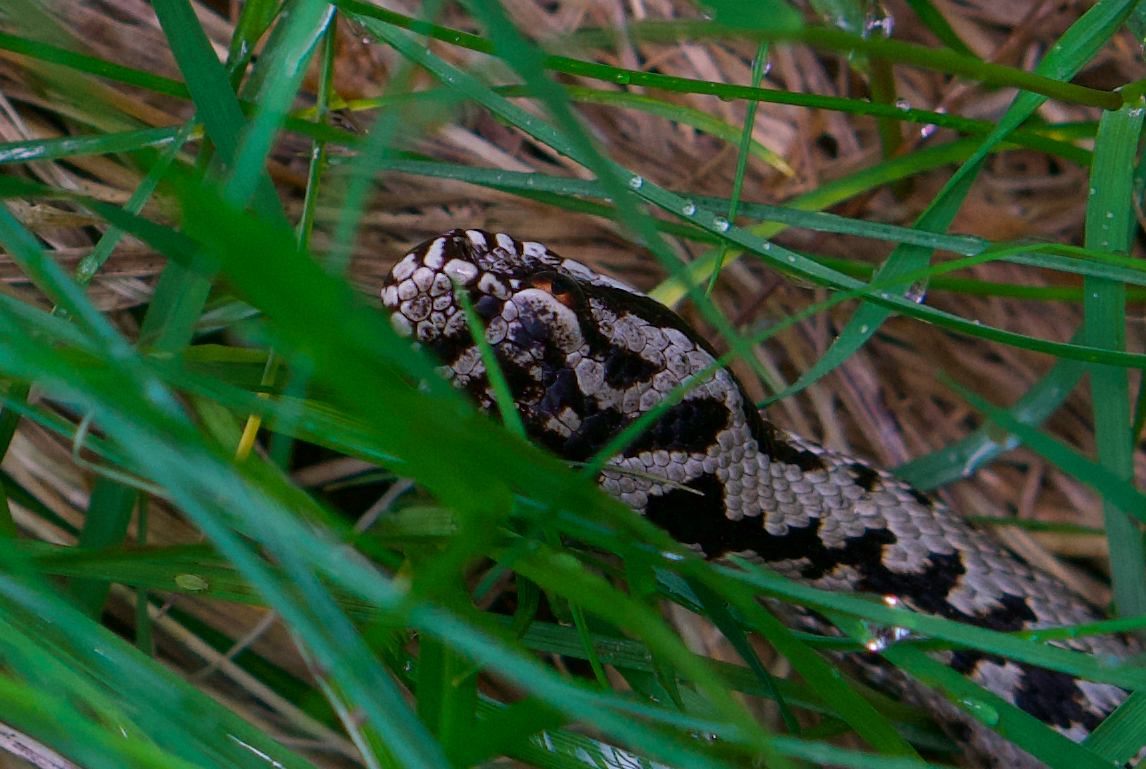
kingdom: Animalia
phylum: Chordata
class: Squamata
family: Viperidae
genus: Vipera
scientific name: Vipera berus
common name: Adder
